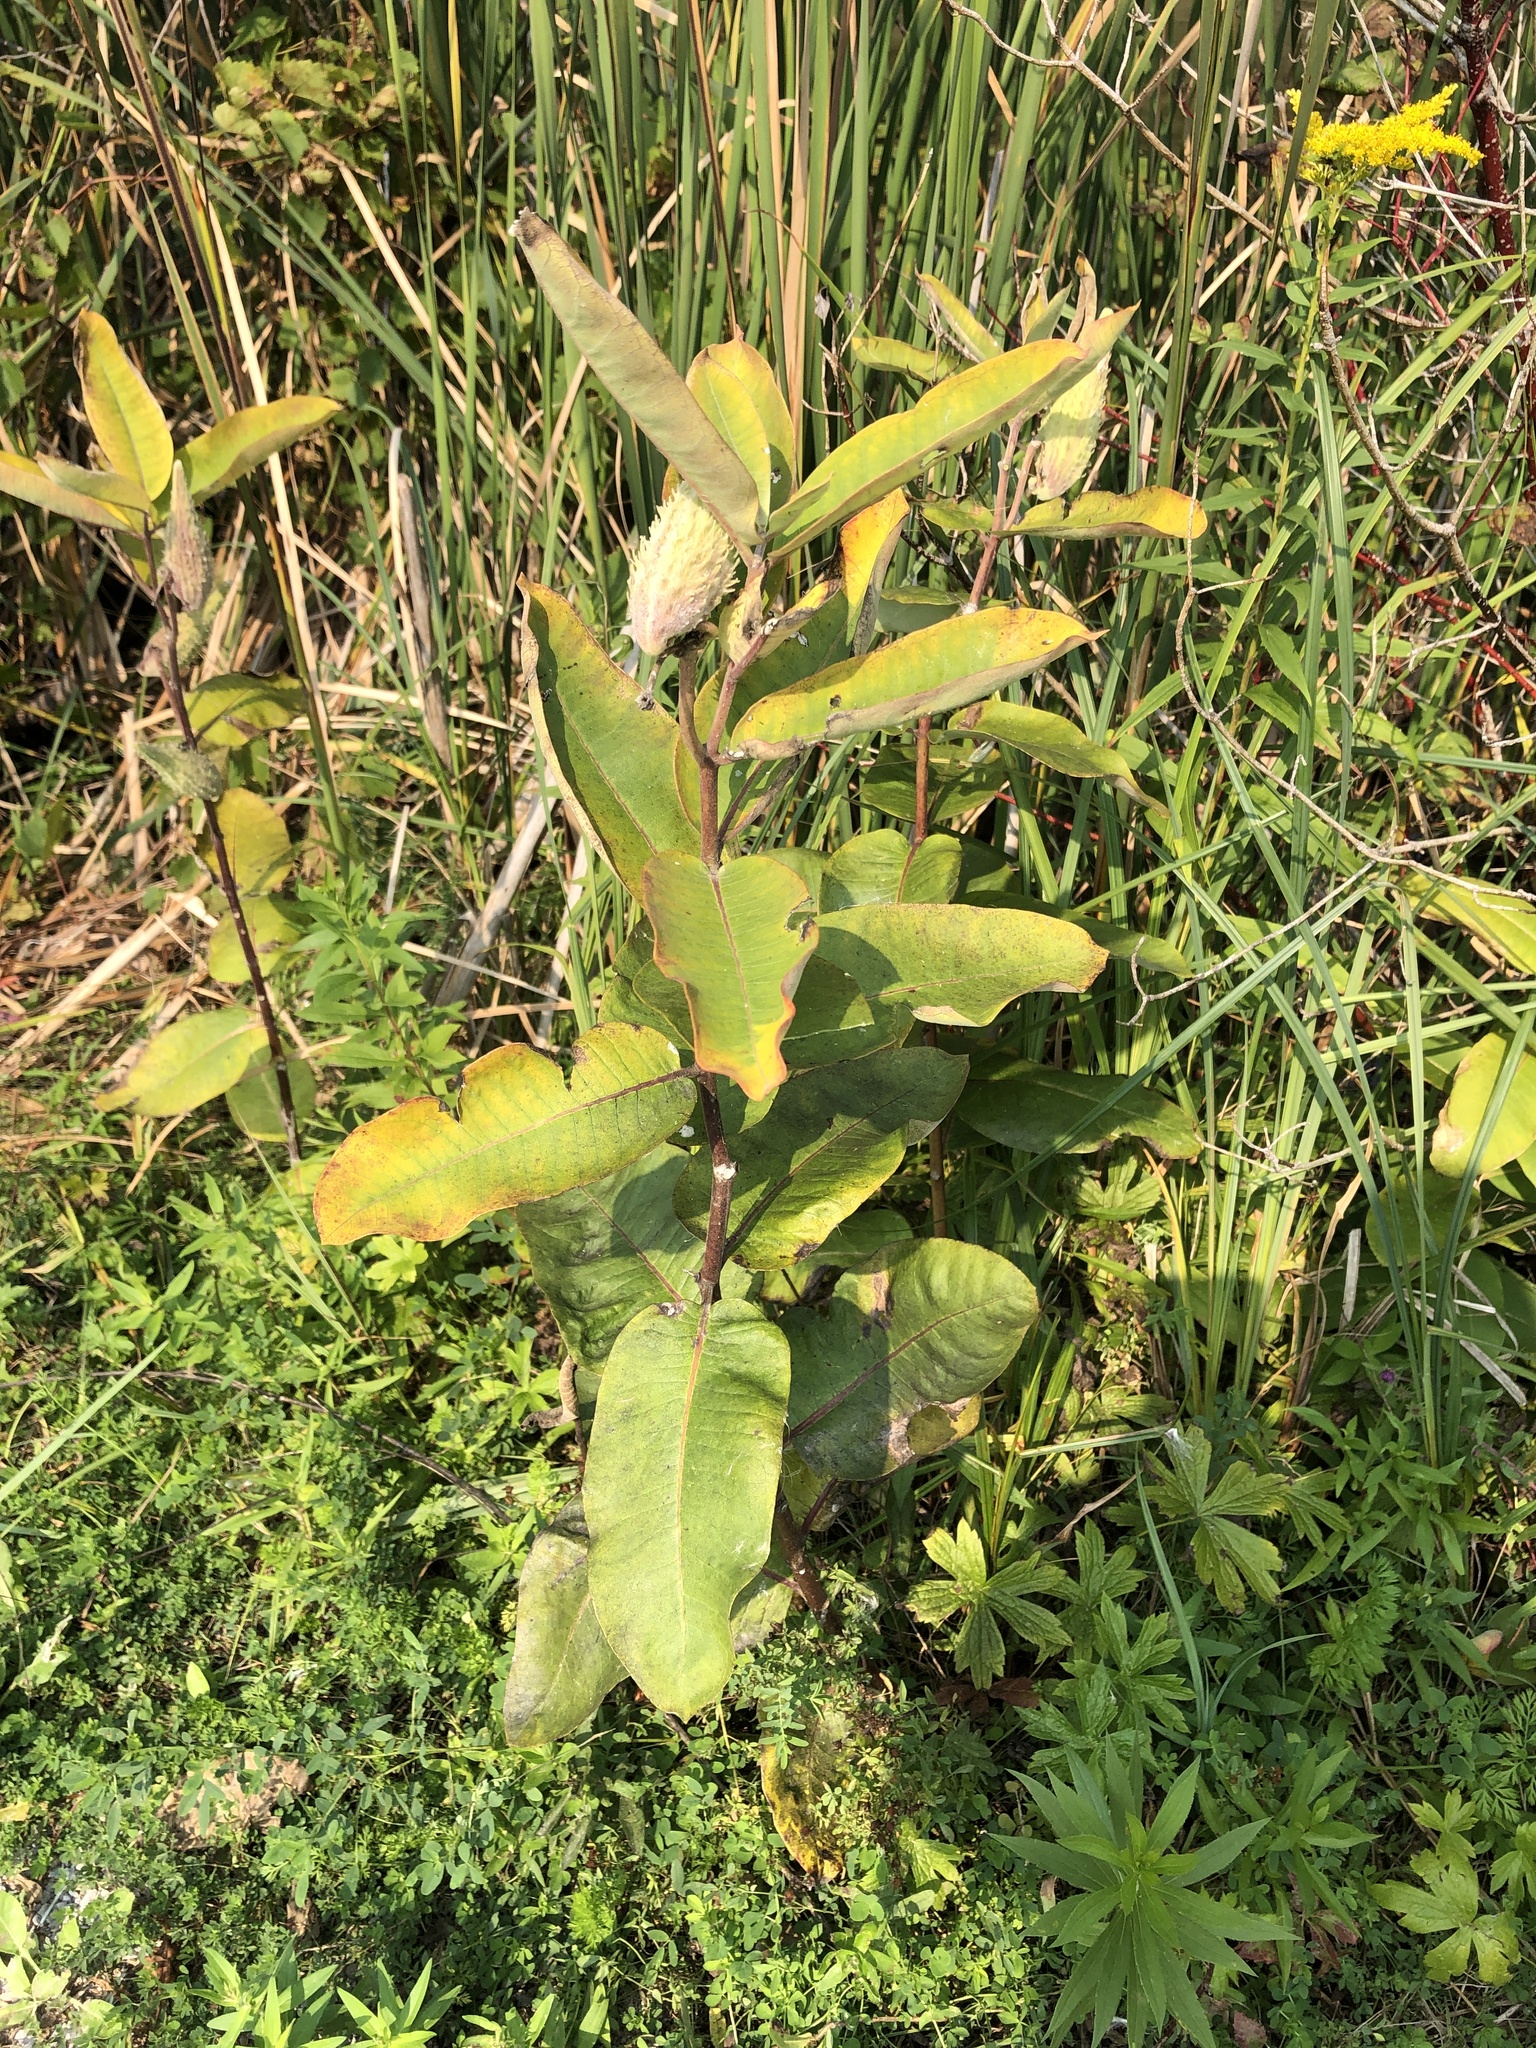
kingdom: Plantae
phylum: Tracheophyta
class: Magnoliopsida
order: Gentianales
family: Apocynaceae
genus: Asclepias
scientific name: Asclepias syriaca
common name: Common milkweed
